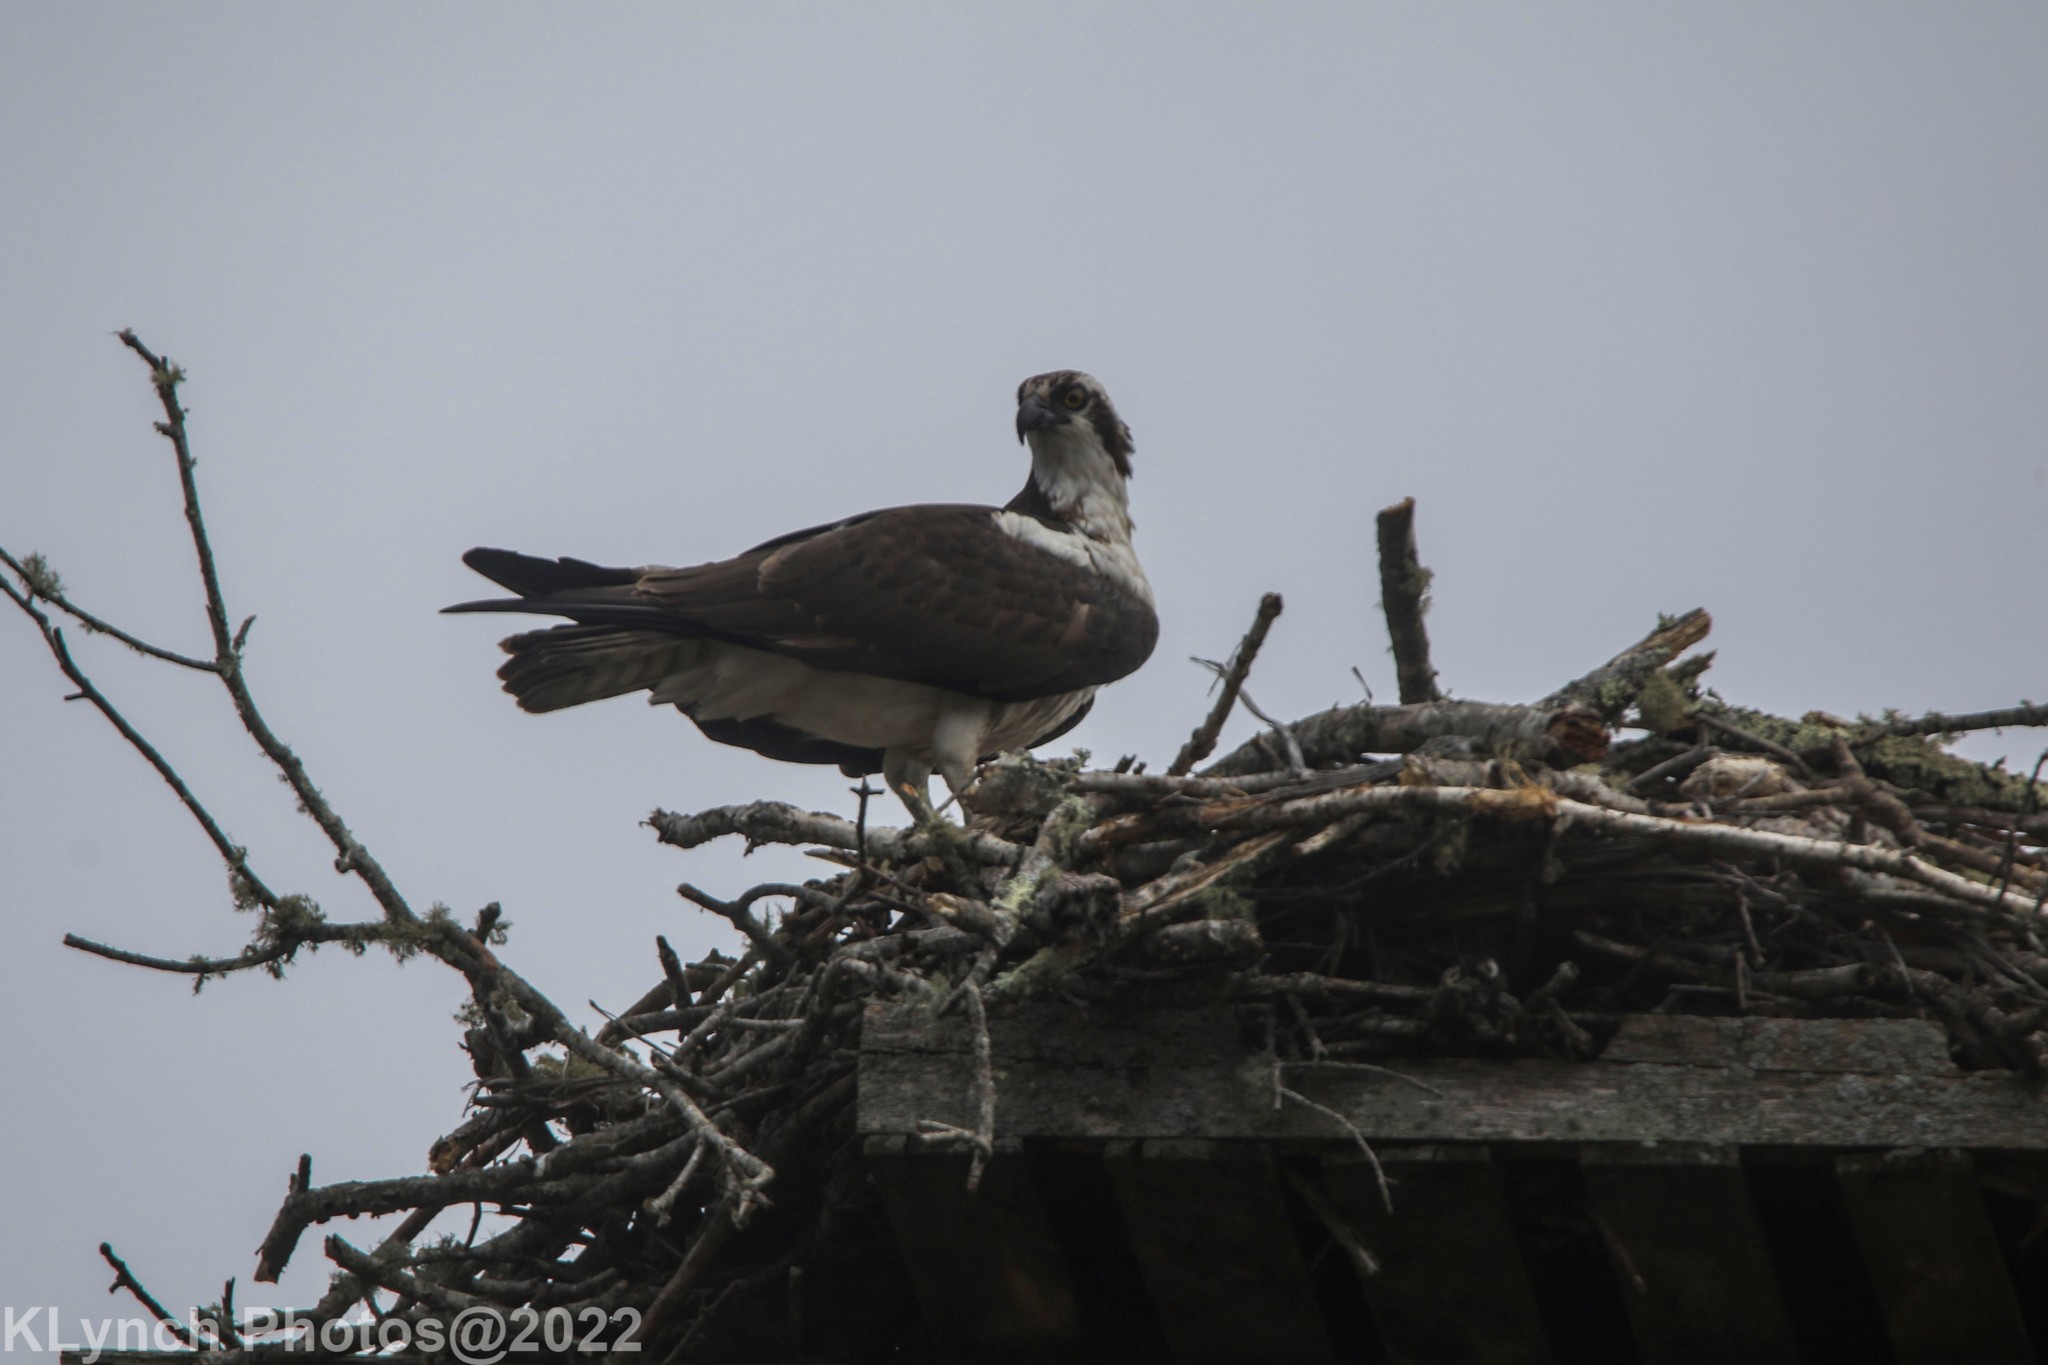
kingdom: Animalia
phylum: Chordata
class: Aves
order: Accipitriformes
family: Pandionidae
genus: Pandion
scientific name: Pandion haliaetus
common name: Osprey
